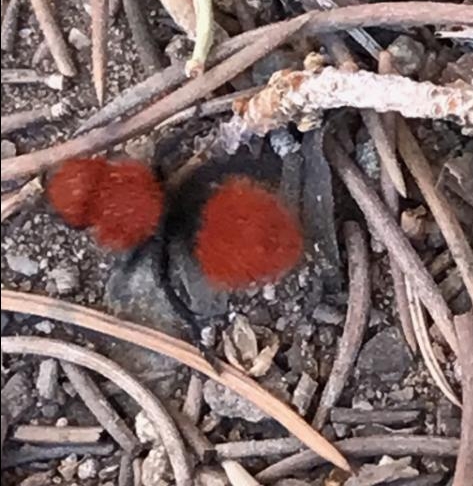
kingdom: Animalia
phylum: Arthropoda
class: Insecta
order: Hymenoptera
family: Mutillidae
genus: Dasymutilla
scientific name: Dasymutilla
